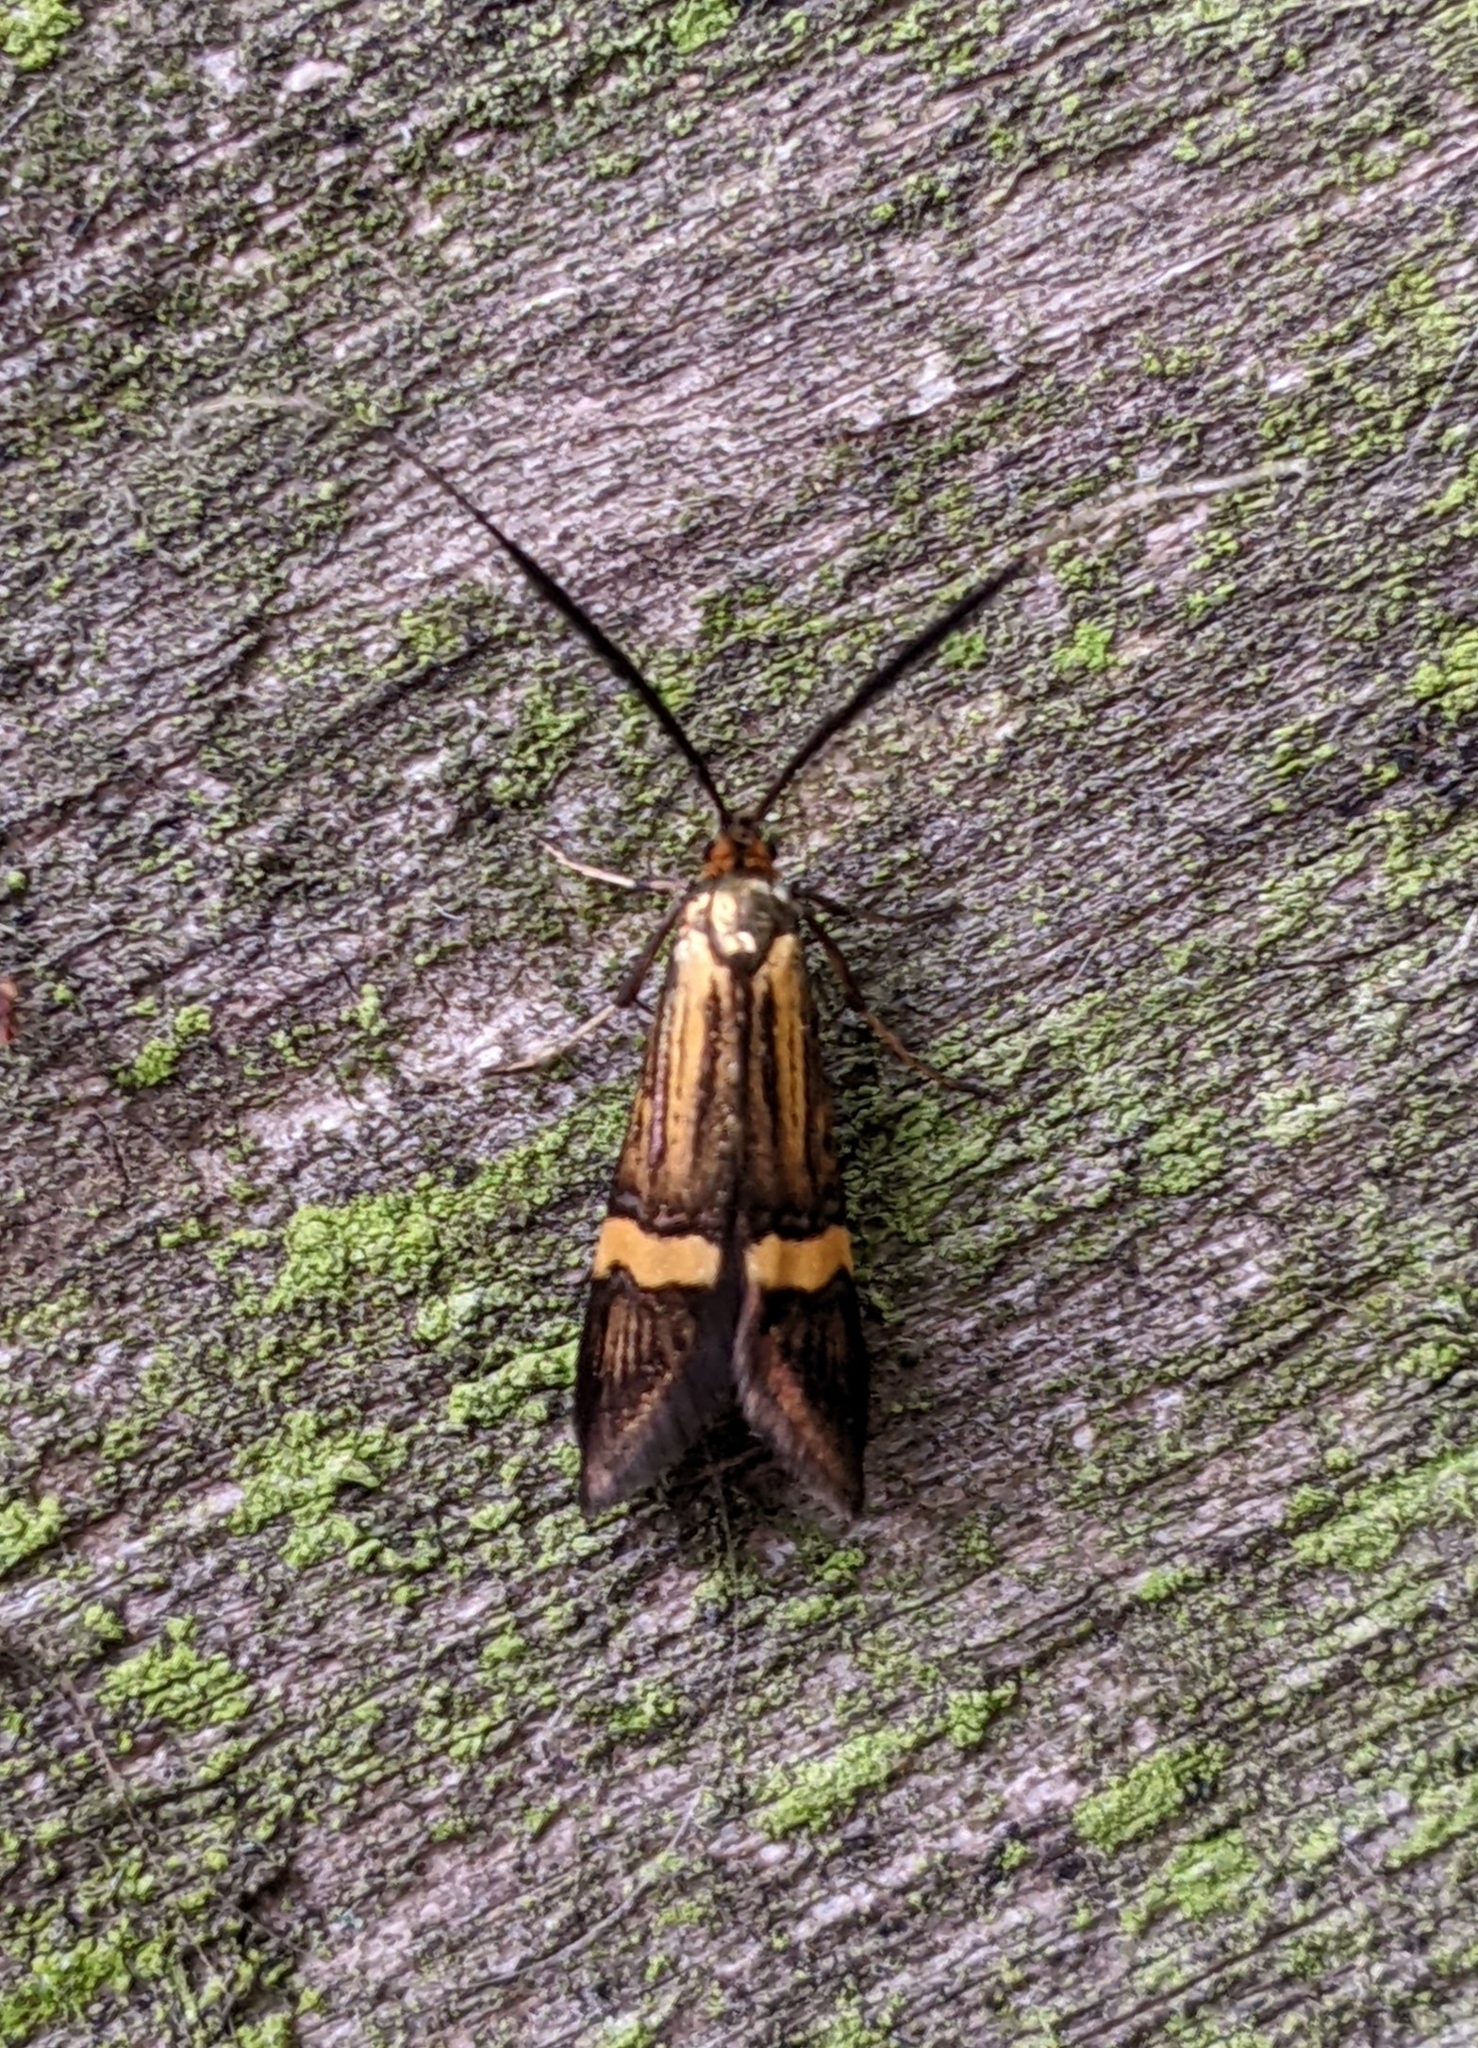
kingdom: Animalia
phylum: Arthropoda
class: Insecta
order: Lepidoptera
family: Adelidae
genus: Nemophora
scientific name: Nemophora degeerella
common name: Yellow-barred long-horn
